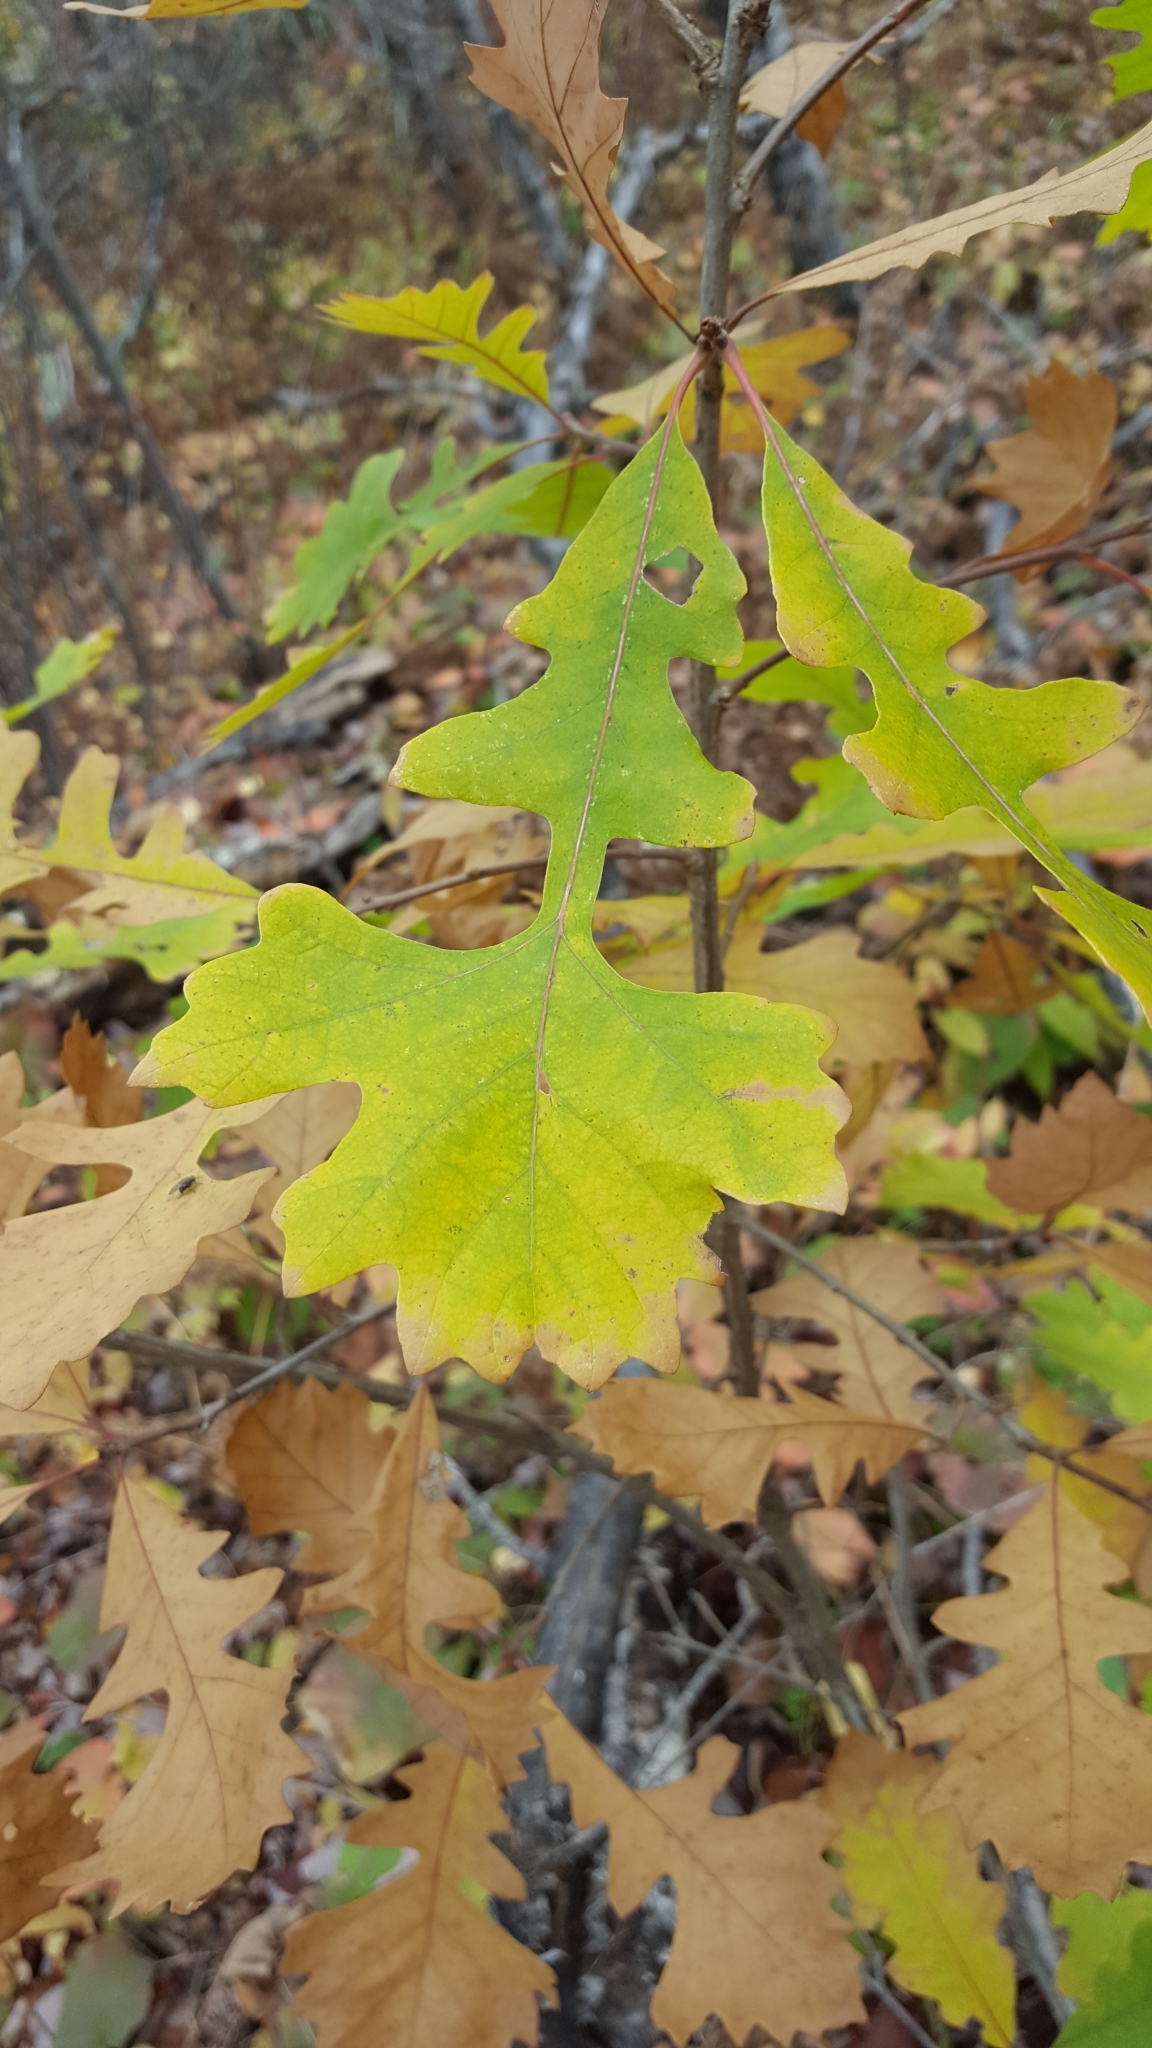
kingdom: Plantae
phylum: Tracheophyta
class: Magnoliopsida
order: Fagales
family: Fagaceae
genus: Quercus
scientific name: Quercus macrocarpa
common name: Bur oak
